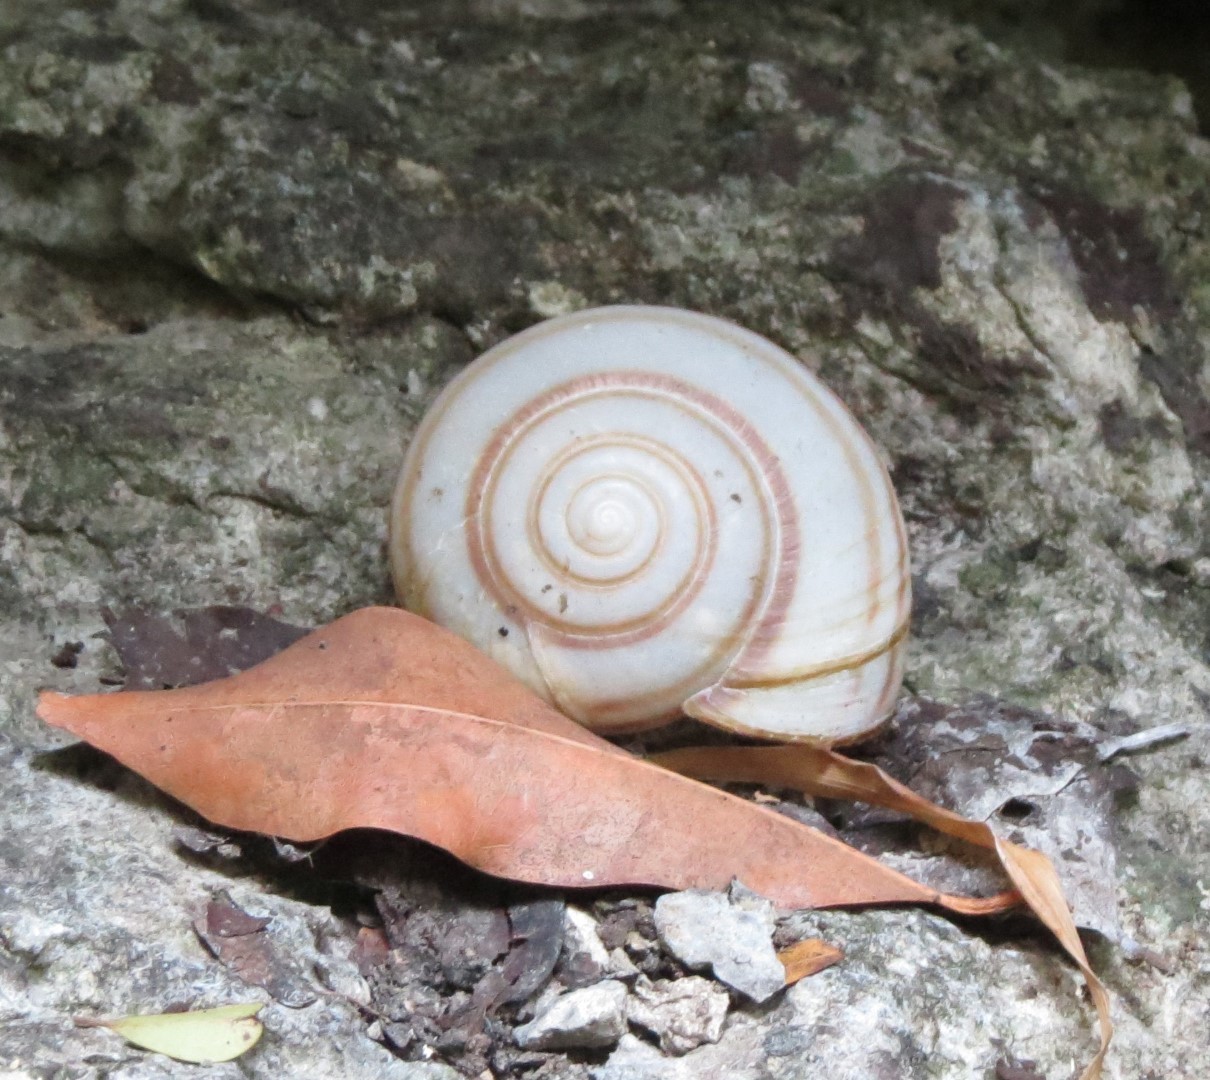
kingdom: Animalia
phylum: Mollusca
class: Gastropoda
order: Stylommatophora
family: Helicarionidae
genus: Kalidos
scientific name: Kalidos bathensis
